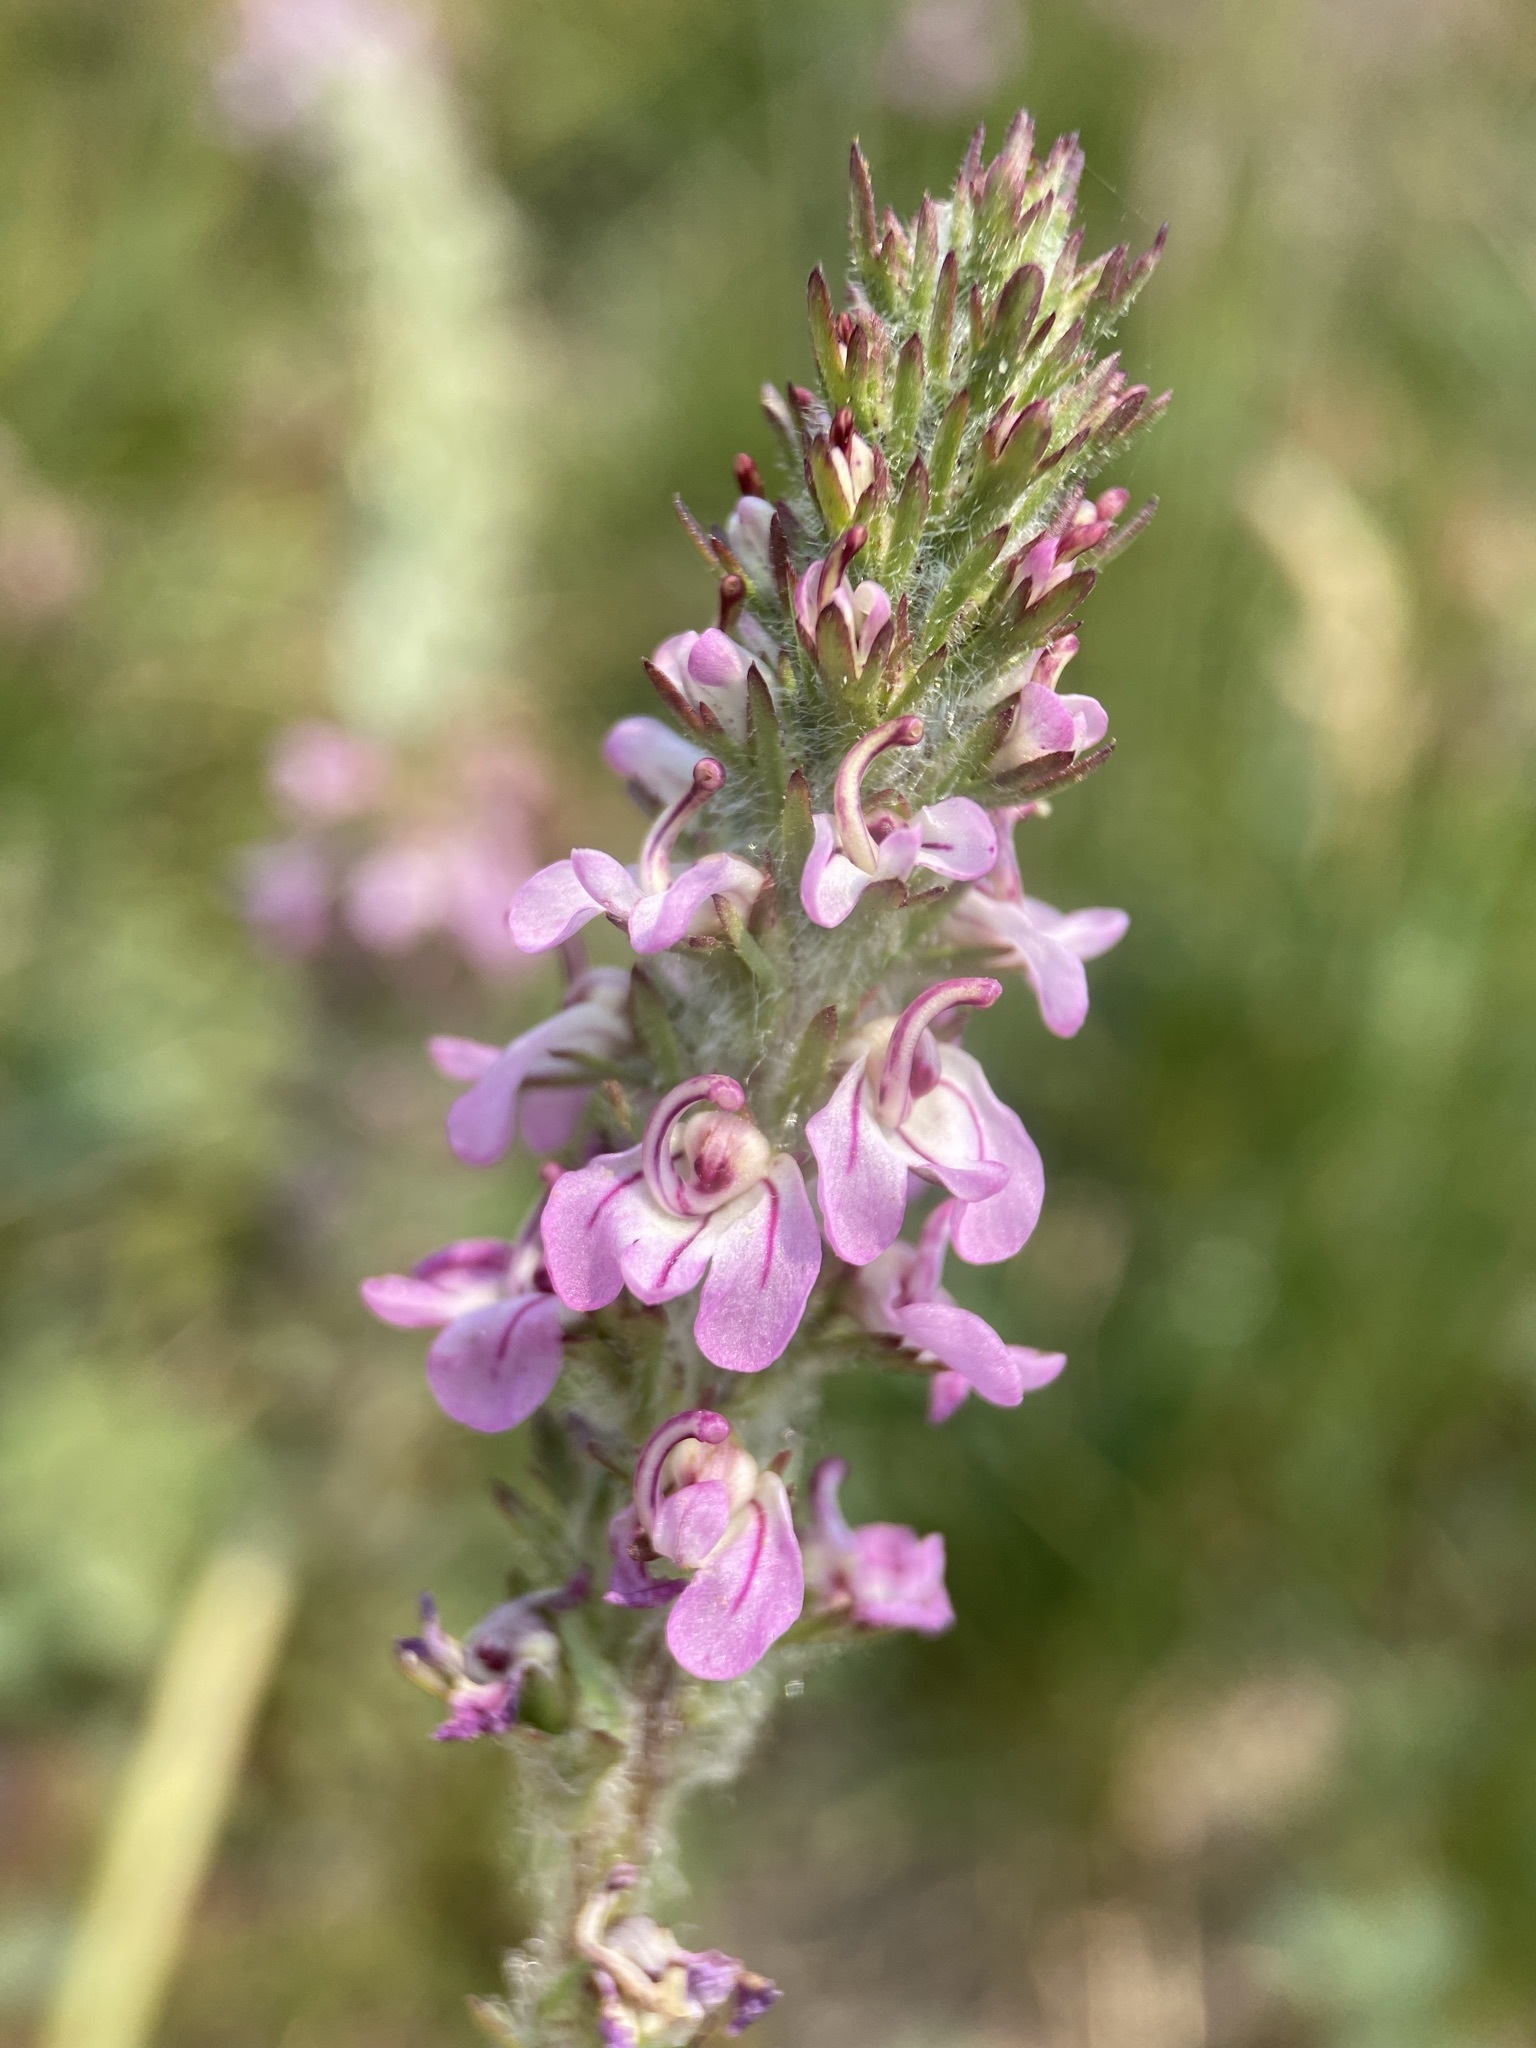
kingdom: Plantae
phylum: Tracheophyta
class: Magnoliopsida
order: Lamiales
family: Orobanchaceae
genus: Pedicularis
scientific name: Pedicularis attollens
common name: Slender pedicularis
